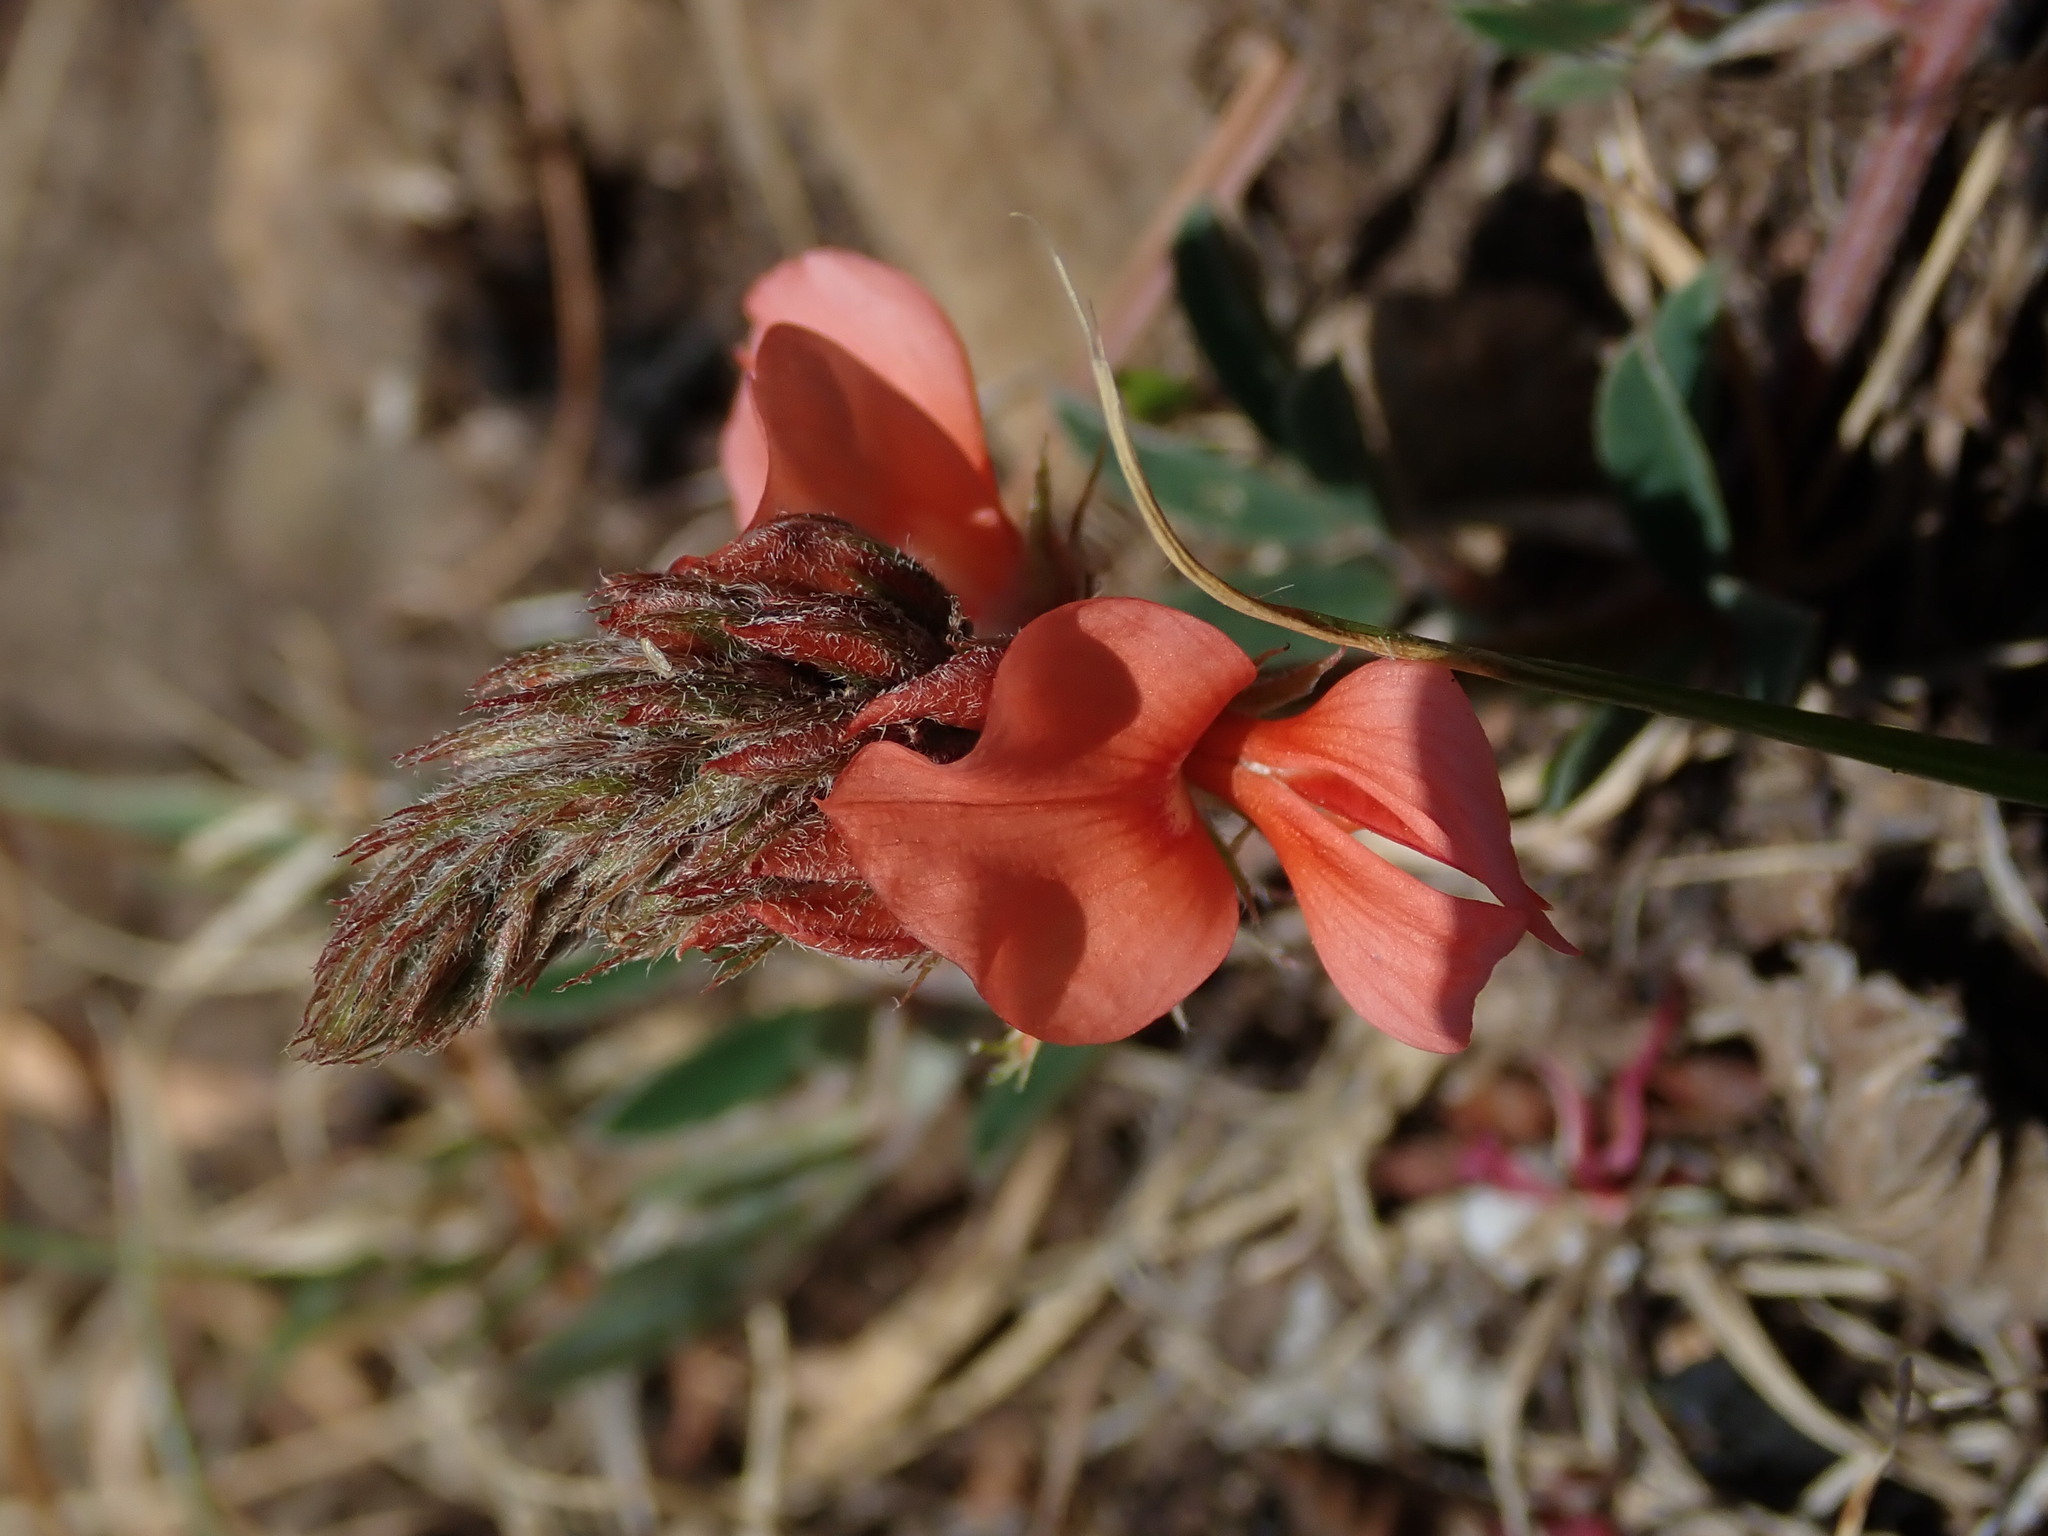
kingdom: Plantae
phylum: Tracheophyta
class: Magnoliopsida
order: Fabales
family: Fabaceae
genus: Indigofera
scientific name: Indigofera campestris
